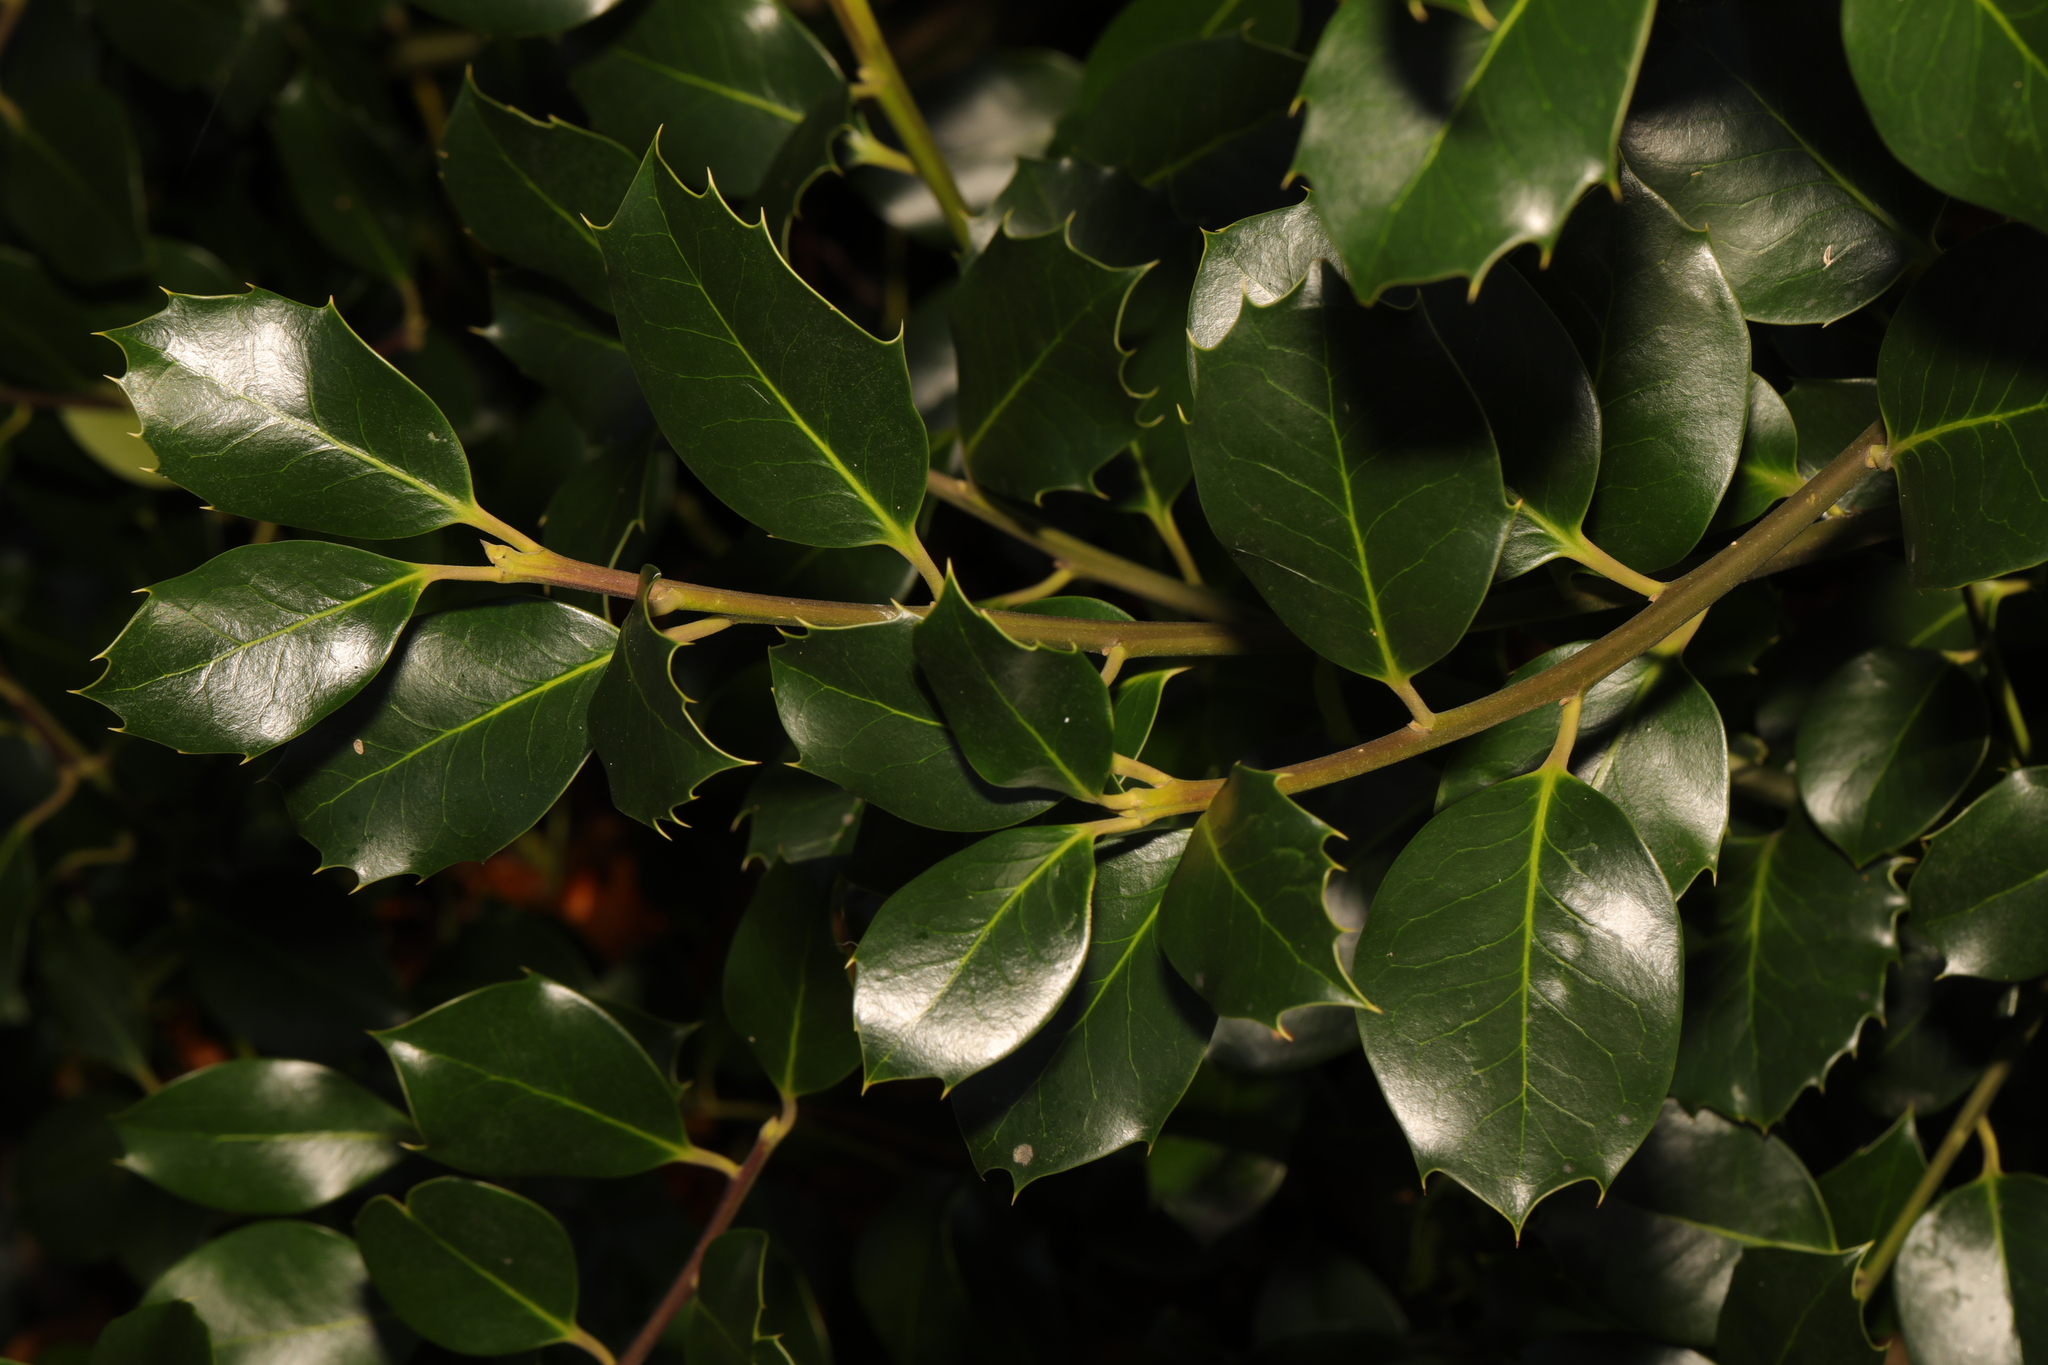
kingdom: Plantae
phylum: Tracheophyta
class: Magnoliopsida
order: Aquifoliales
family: Aquifoliaceae
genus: Ilex
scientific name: Ilex aquifolium
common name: English holly
